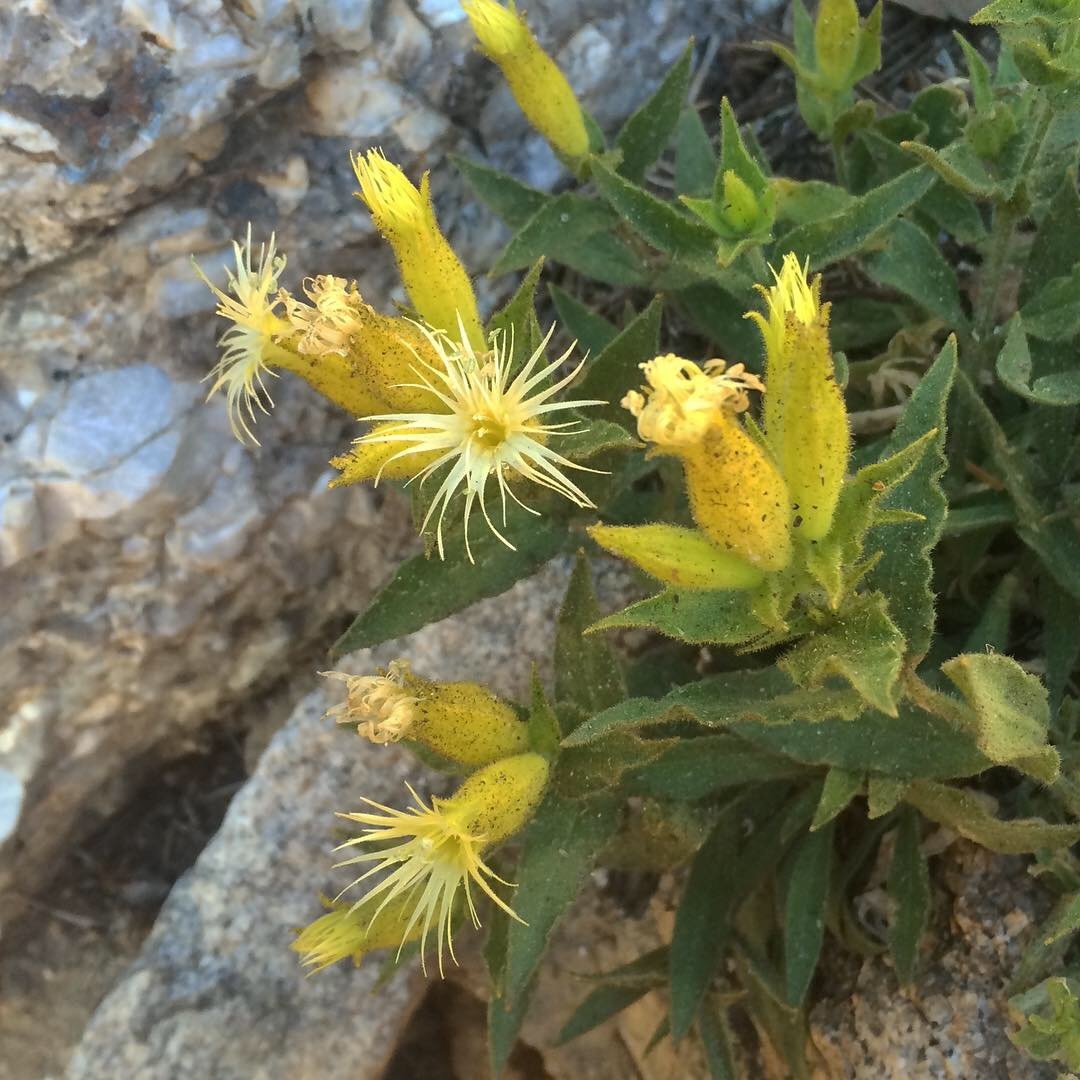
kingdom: Plantae
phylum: Tracheophyta
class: Magnoliopsida
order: Caryophyllales
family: Caryophyllaceae
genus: Silene
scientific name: Silene parishii
